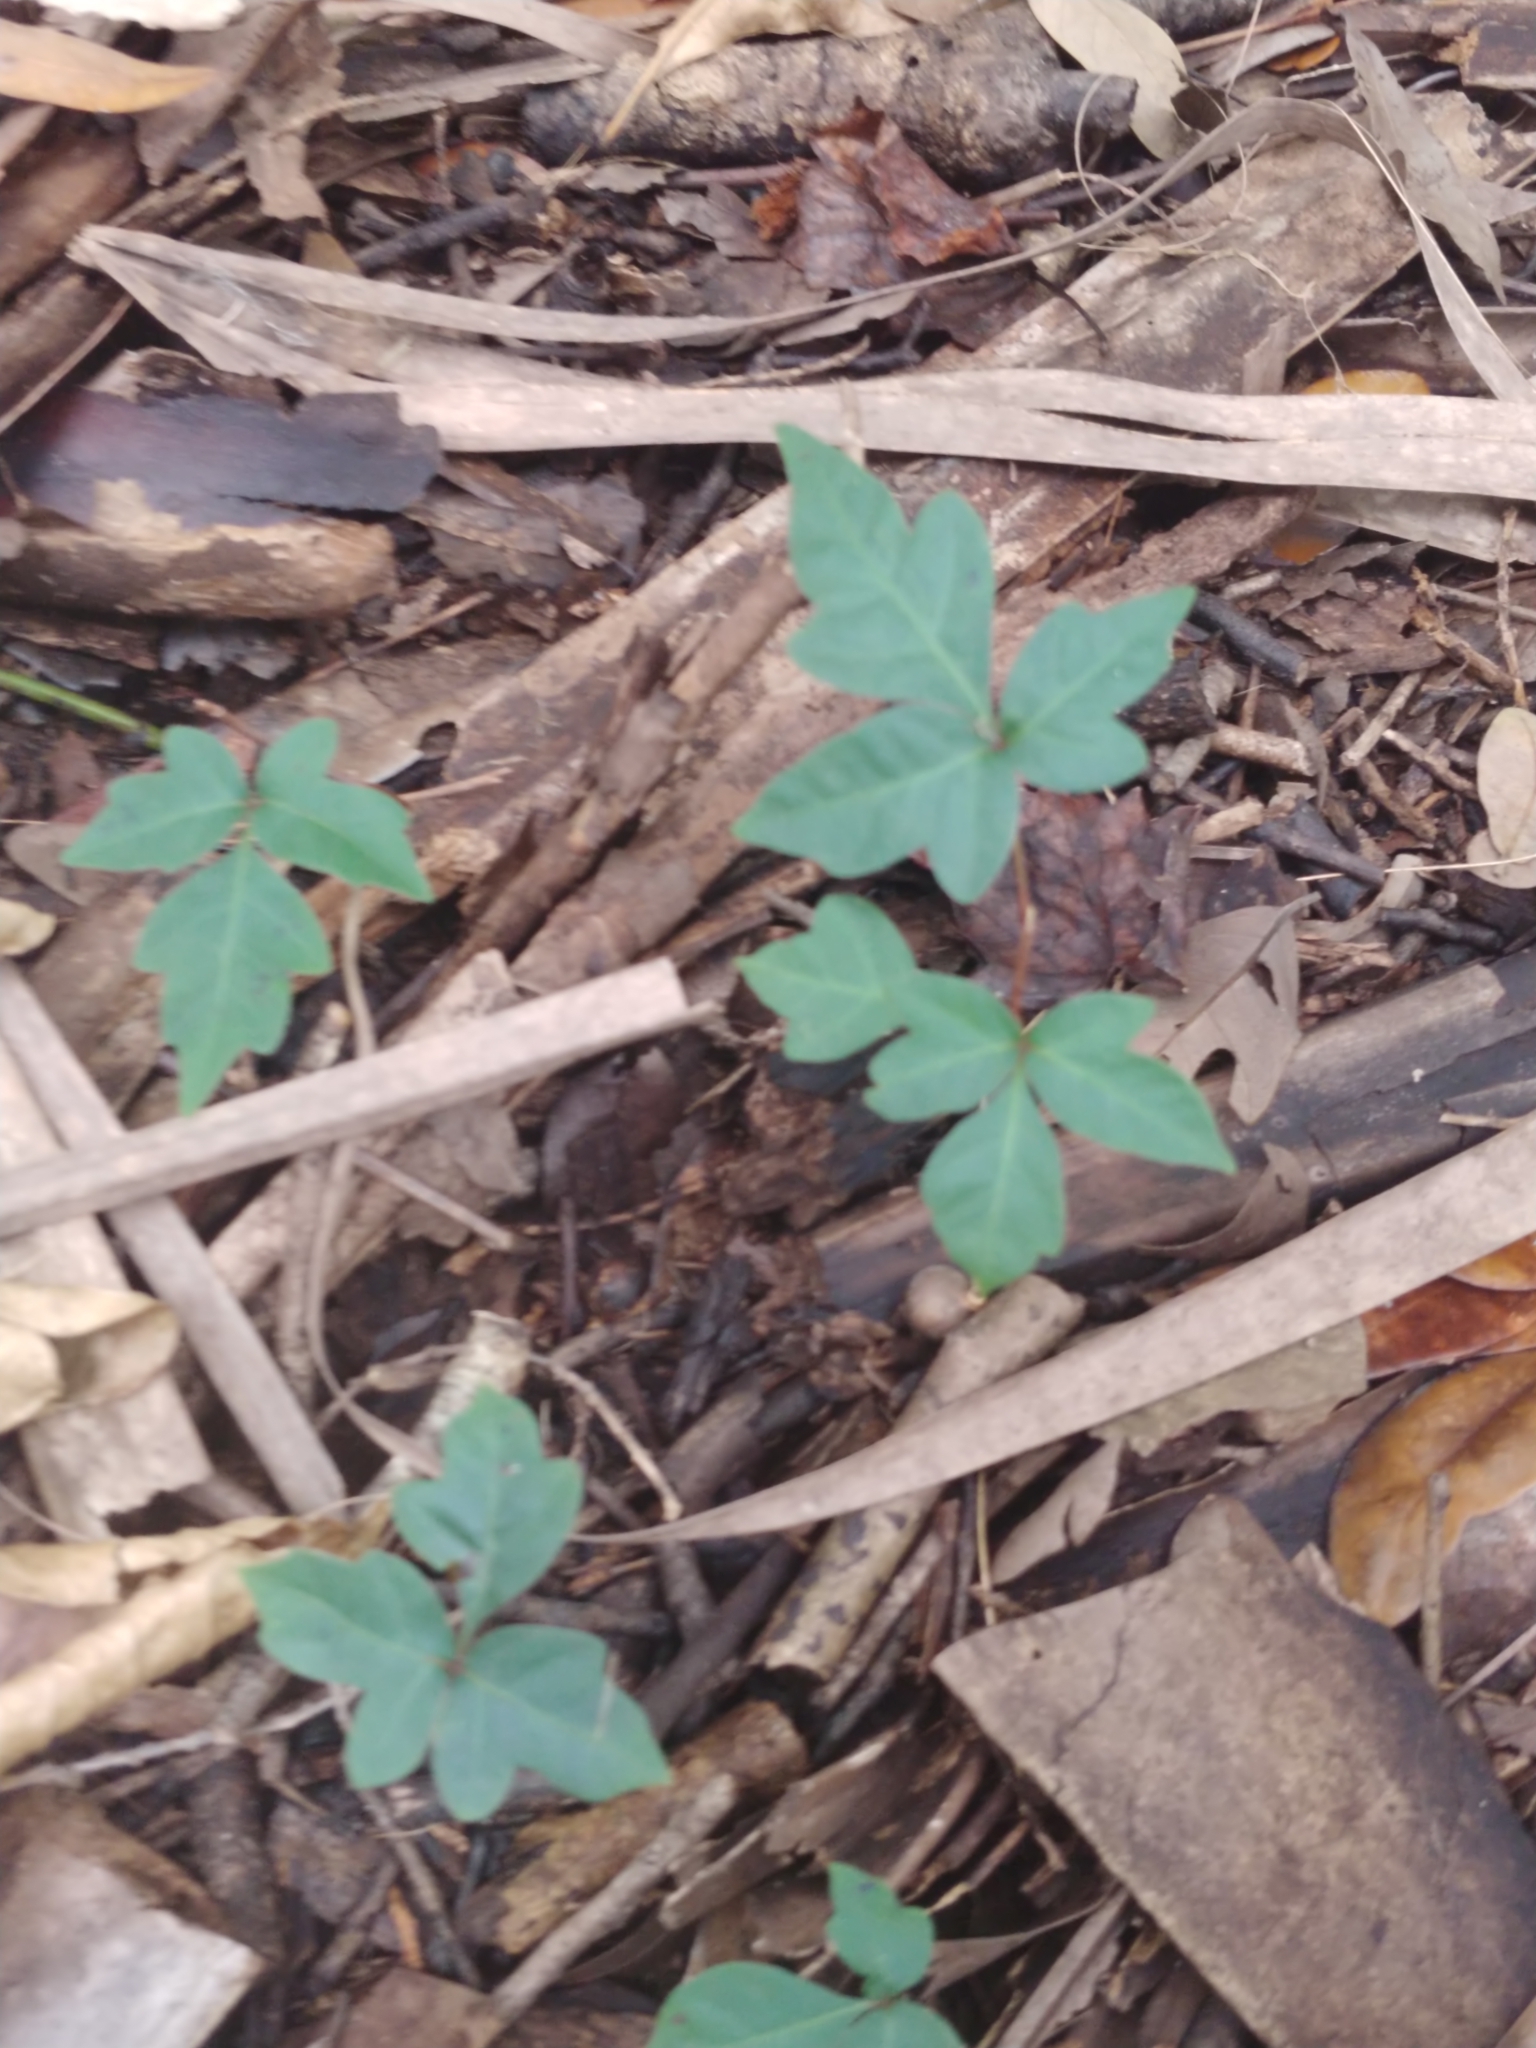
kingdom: Plantae
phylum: Tracheophyta
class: Magnoliopsida
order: Sapindales
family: Anacardiaceae
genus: Toxicodendron
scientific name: Toxicodendron radicans
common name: Poison ivy
